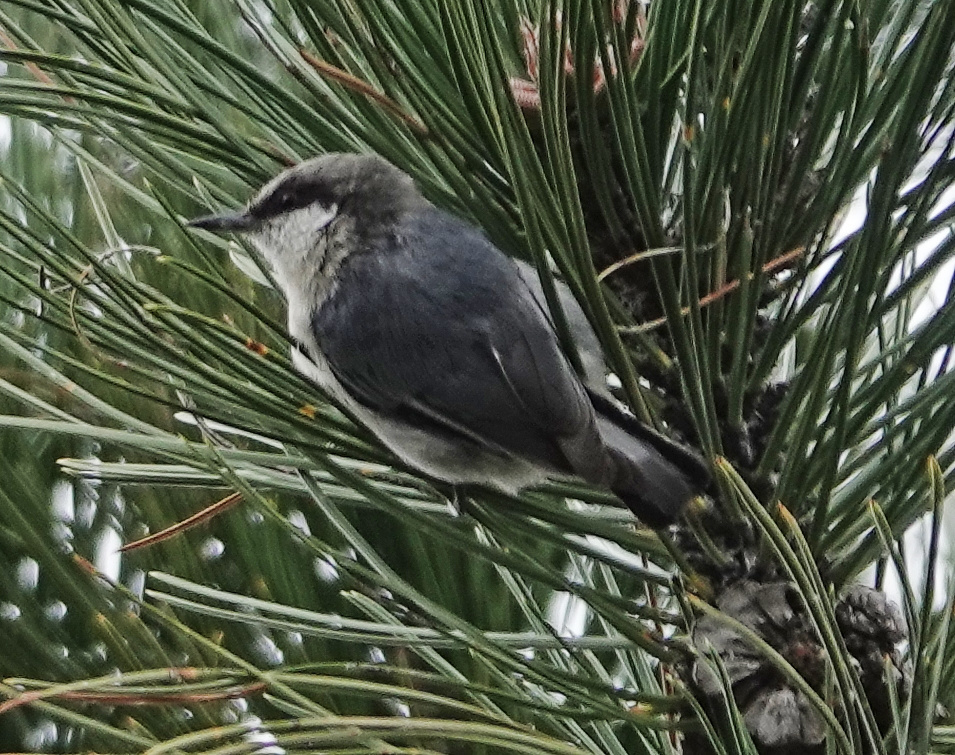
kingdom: Animalia
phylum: Chordata
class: Aves
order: Passeriformes
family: Sittidae
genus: Sitta
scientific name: Sitta pygmaea
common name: Pygmy nuthatch
